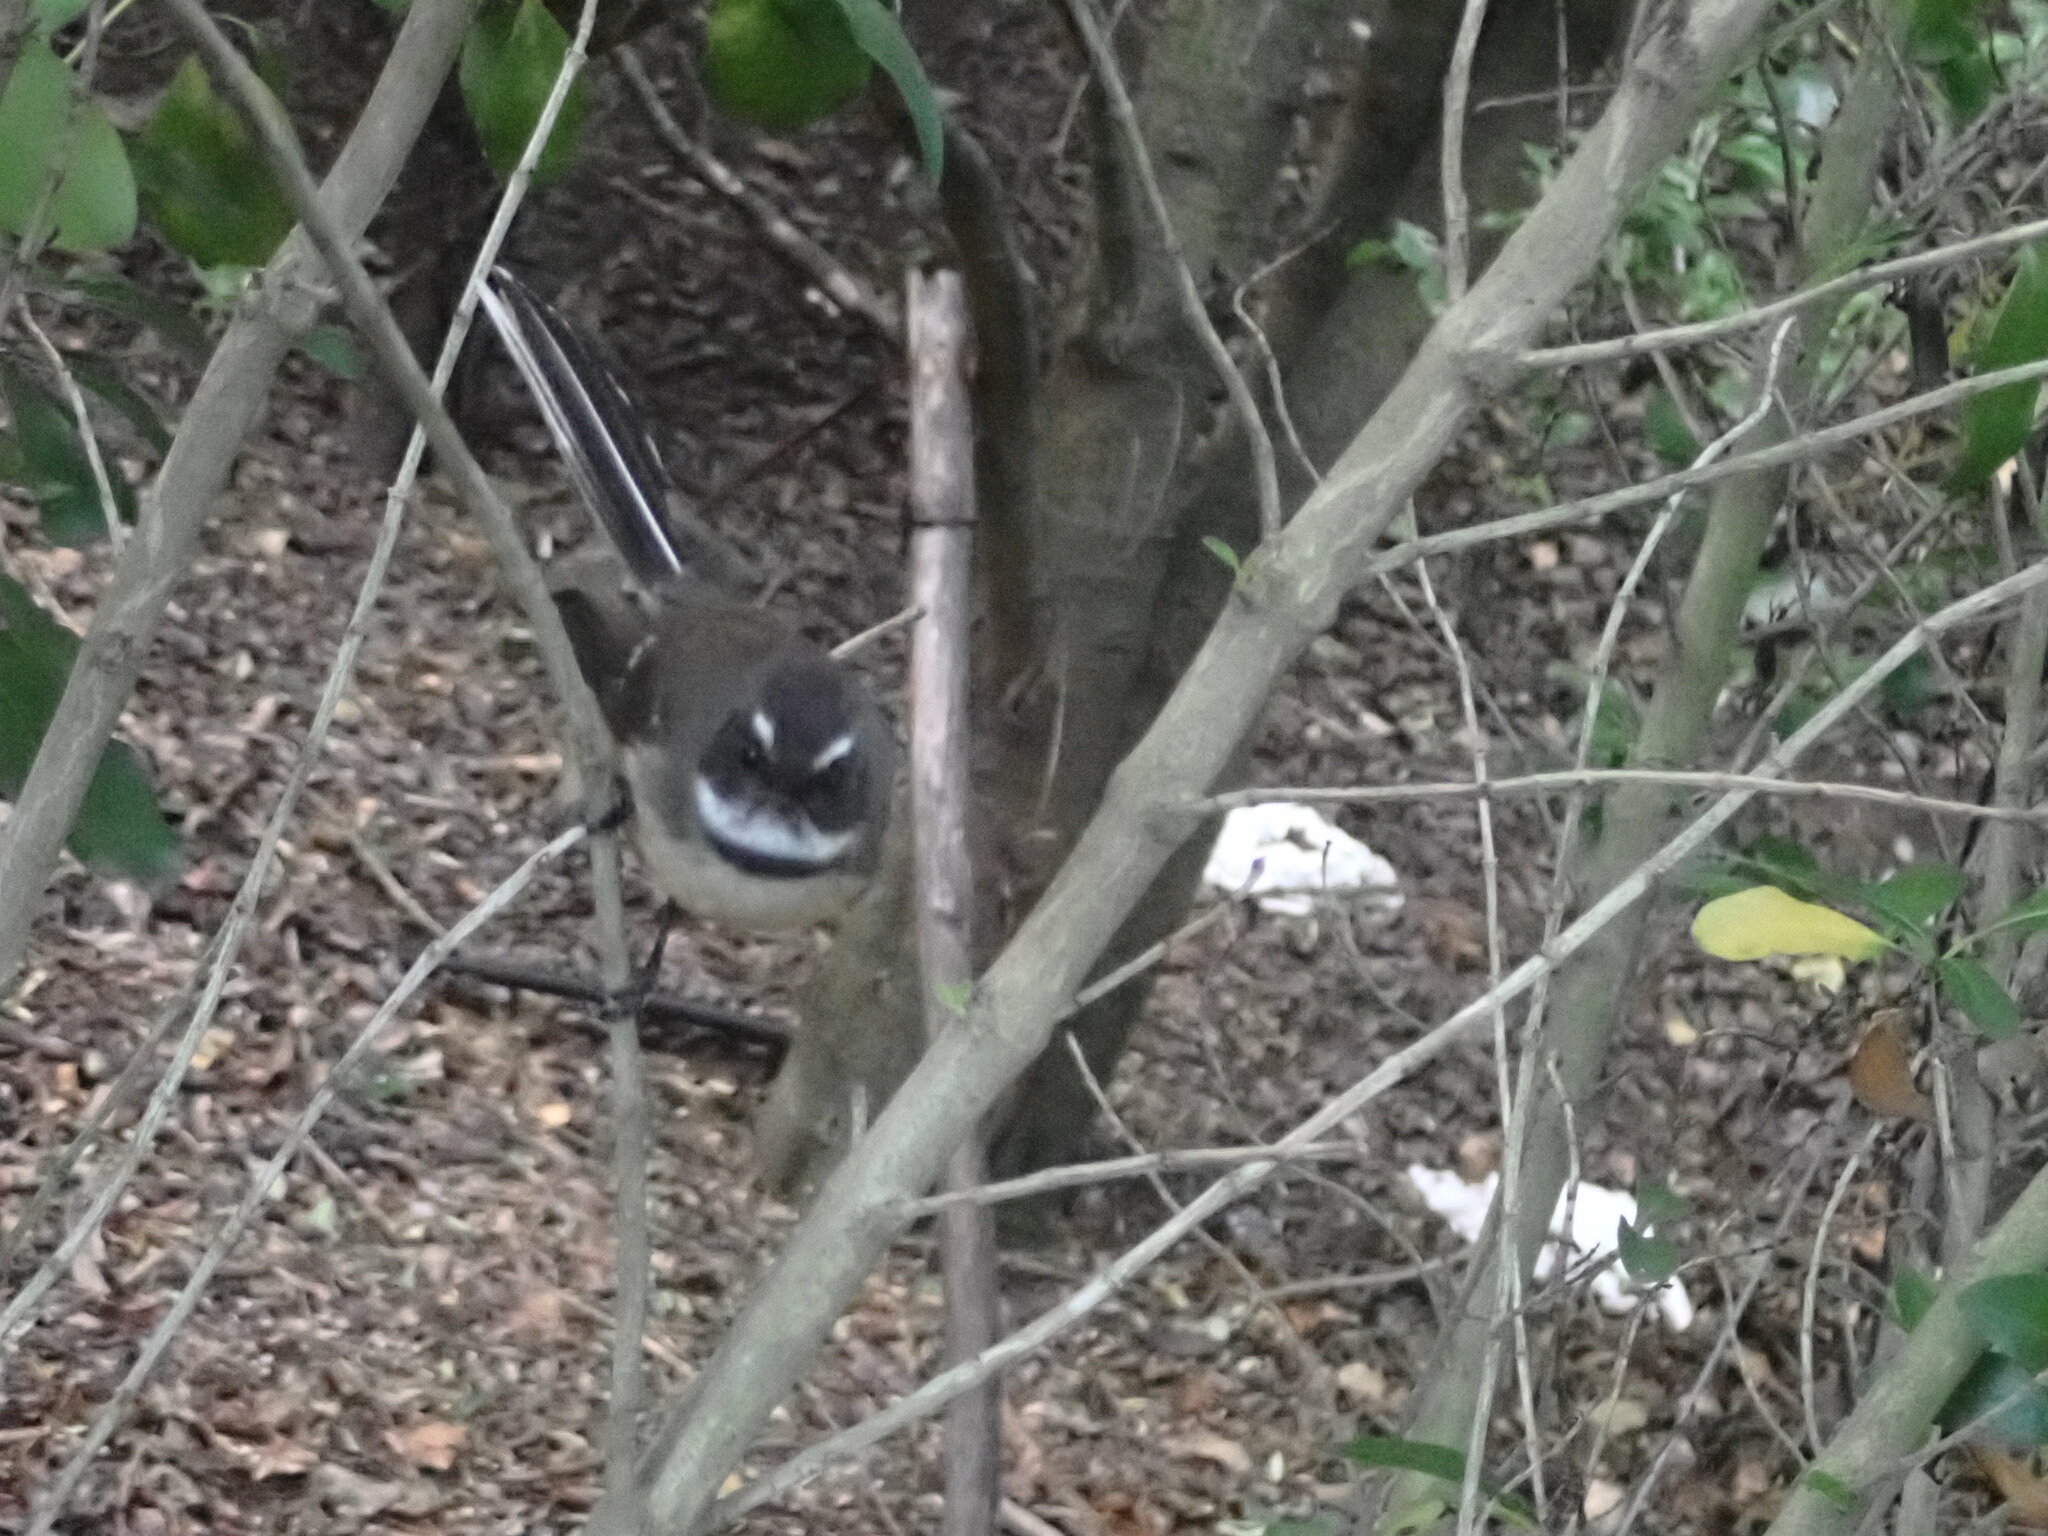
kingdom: Animalia
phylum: Chordata
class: Aves
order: Passeriformes
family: Rhipiduridae
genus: Rhipidura
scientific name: Rhipidura fuliginosa
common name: New zealand fantail
